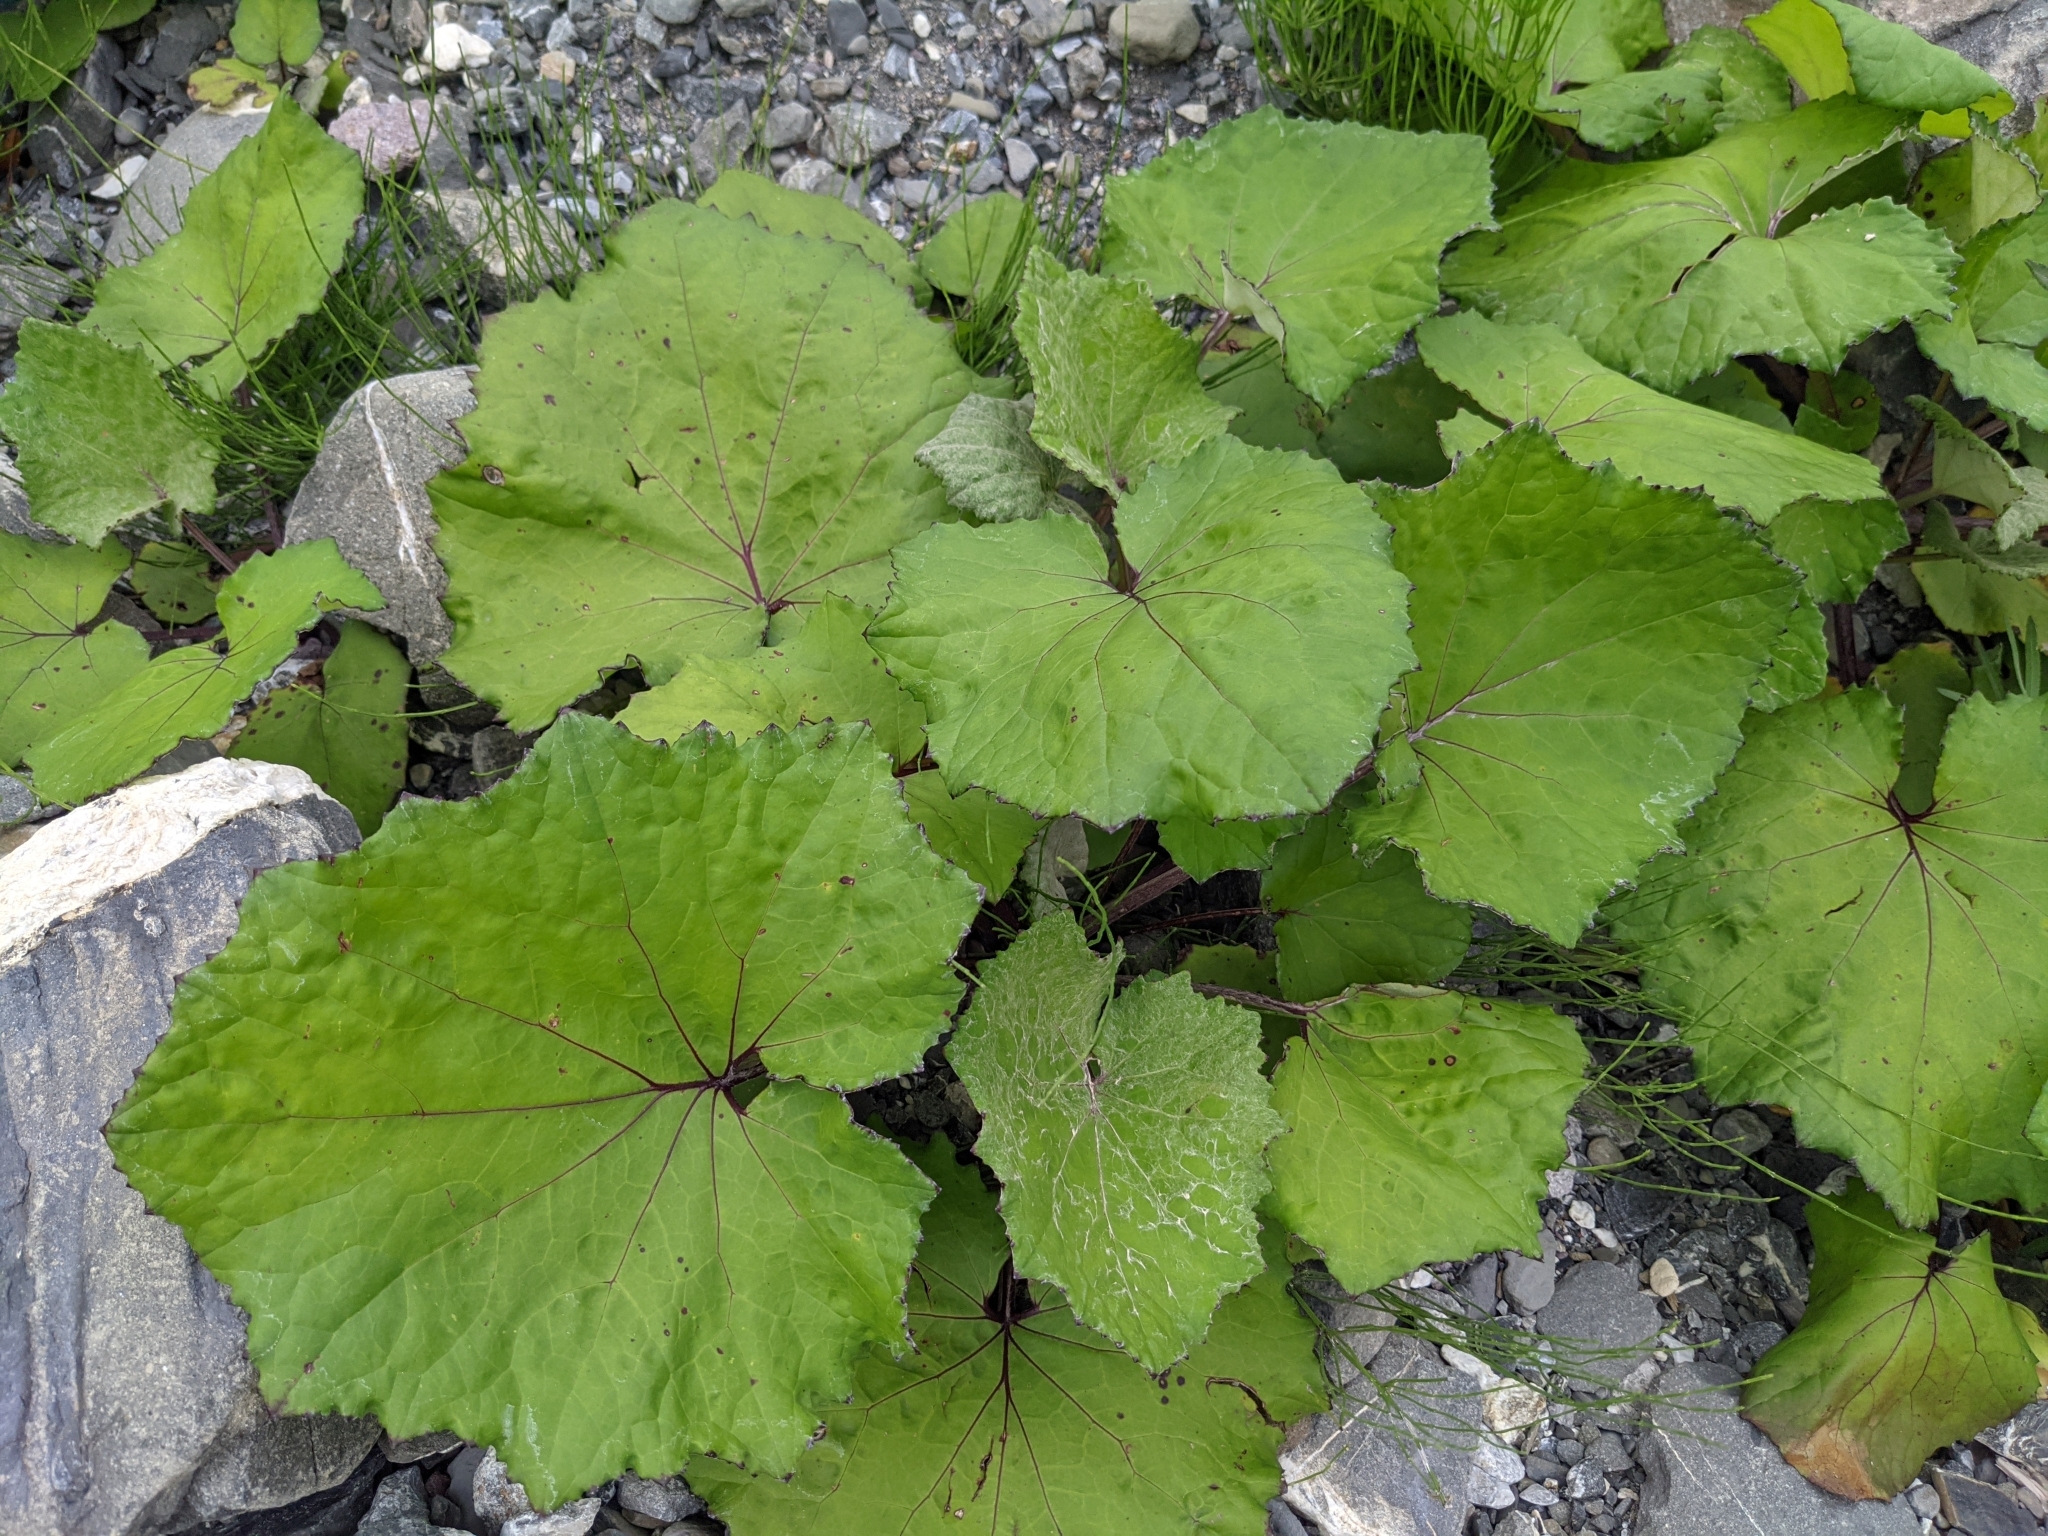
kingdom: Plantae
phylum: Tracheophyta
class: Magnoliopsida
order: Asterales
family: Asteraceae
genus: Tussilago
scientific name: Tussilago farfara
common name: Coltsfoot
